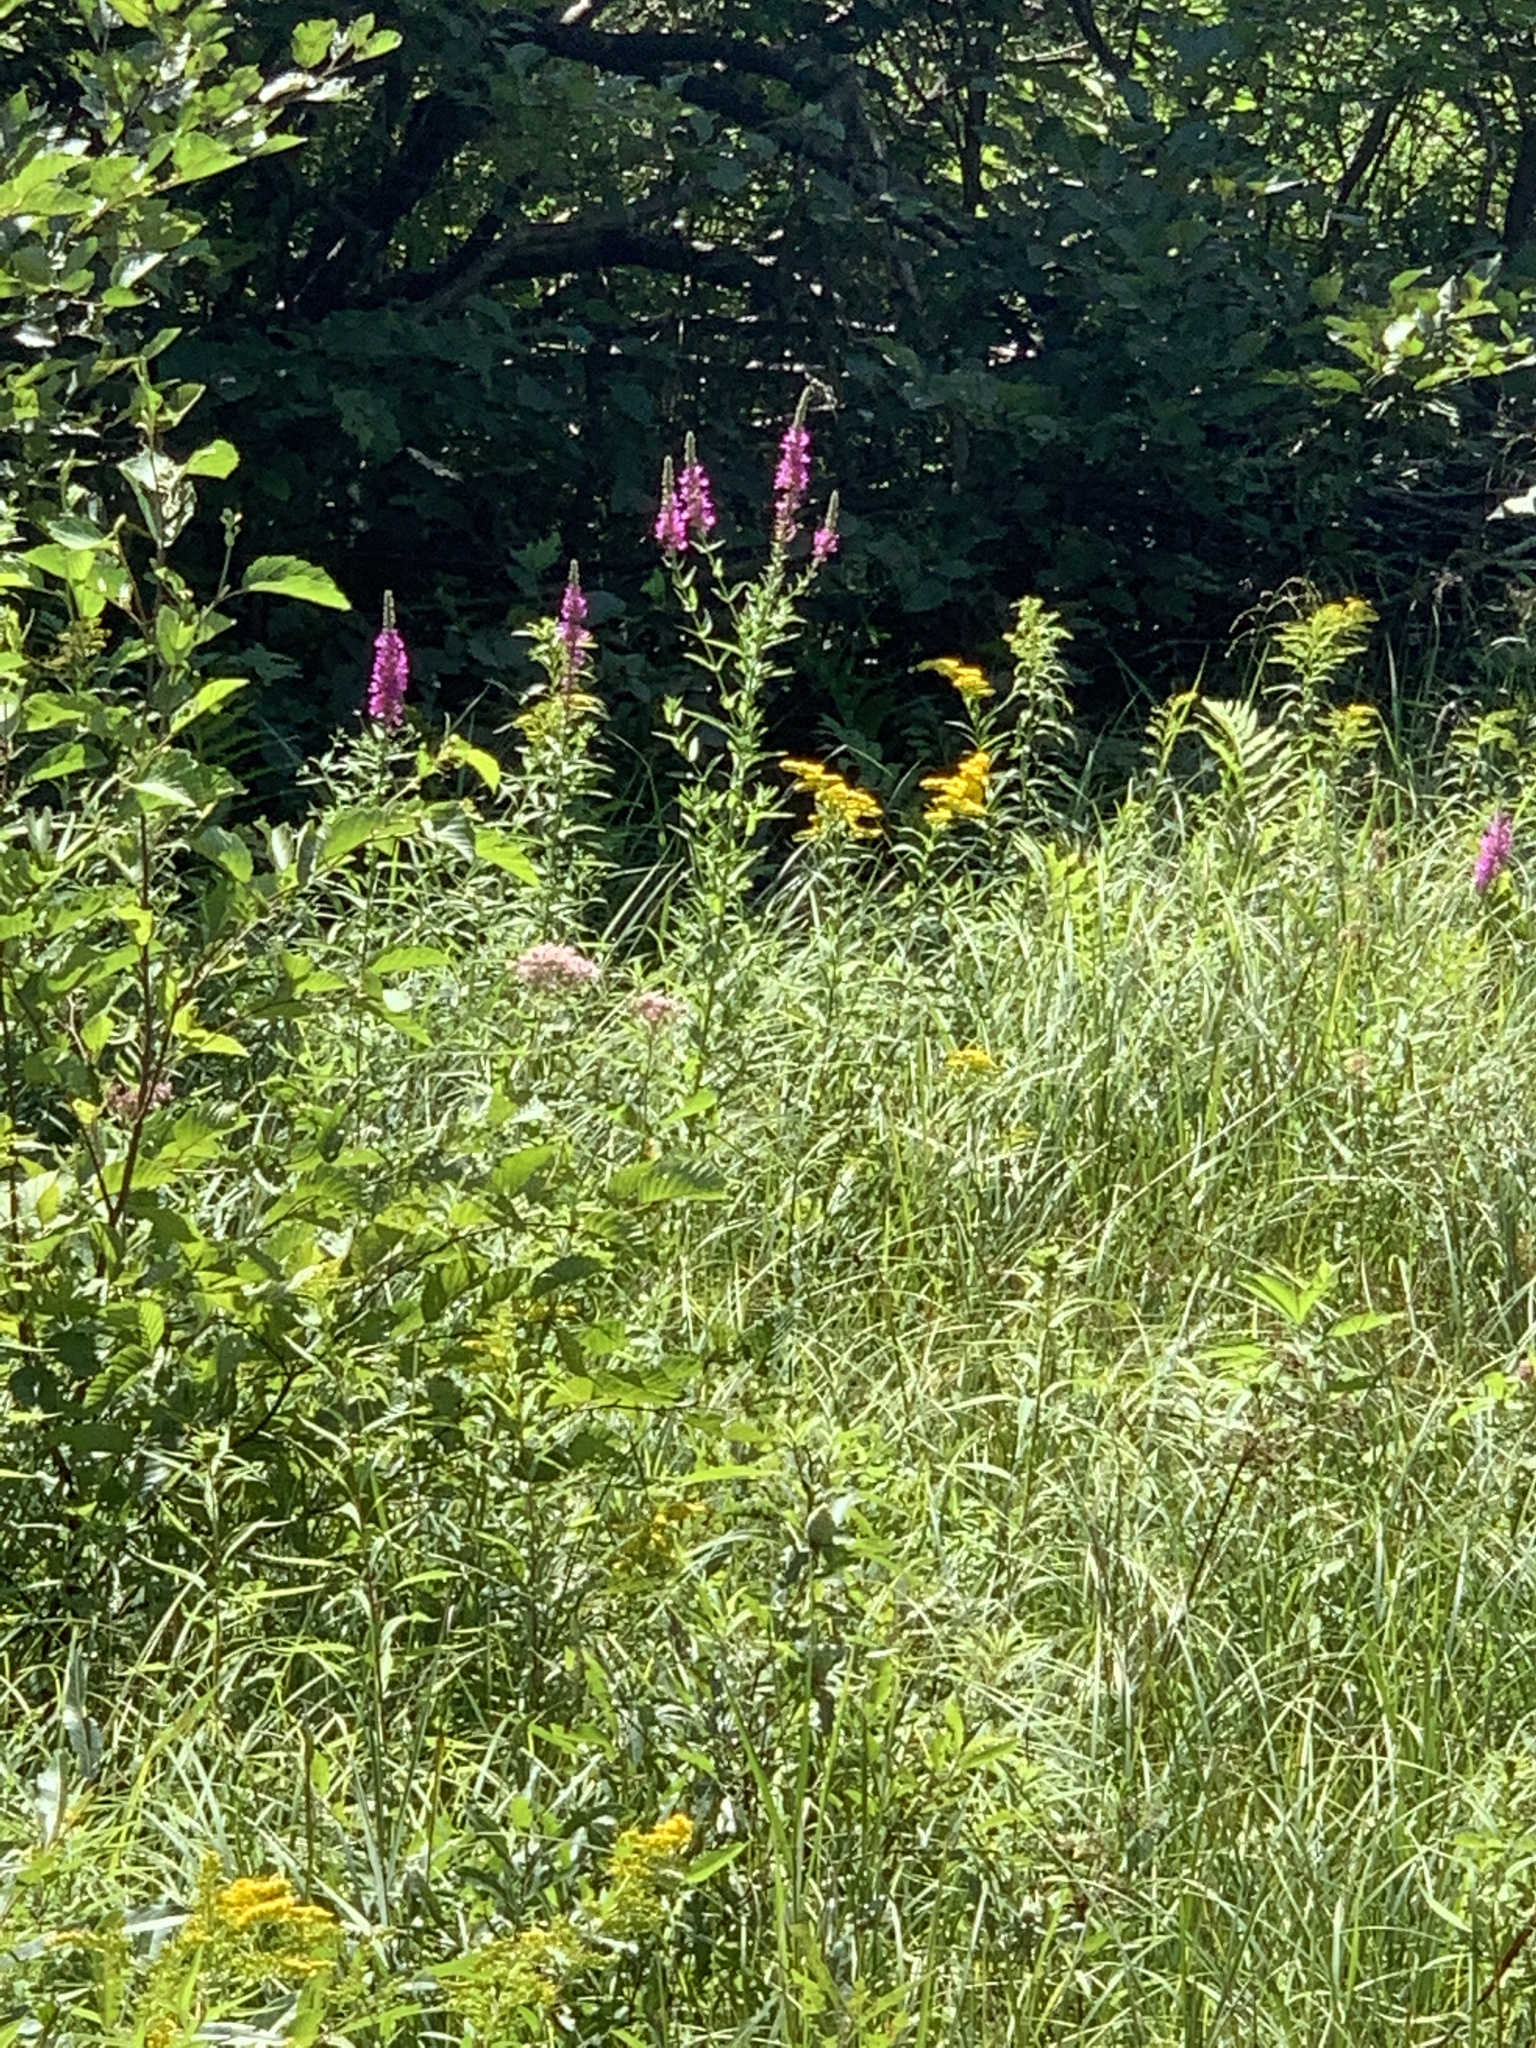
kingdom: Plantae
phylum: Tracheophyta
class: Magnoliopsida
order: Myrtales
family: Lythraceae
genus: Lythrum
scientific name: Lythrum salicaria
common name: Purple loosestrife
